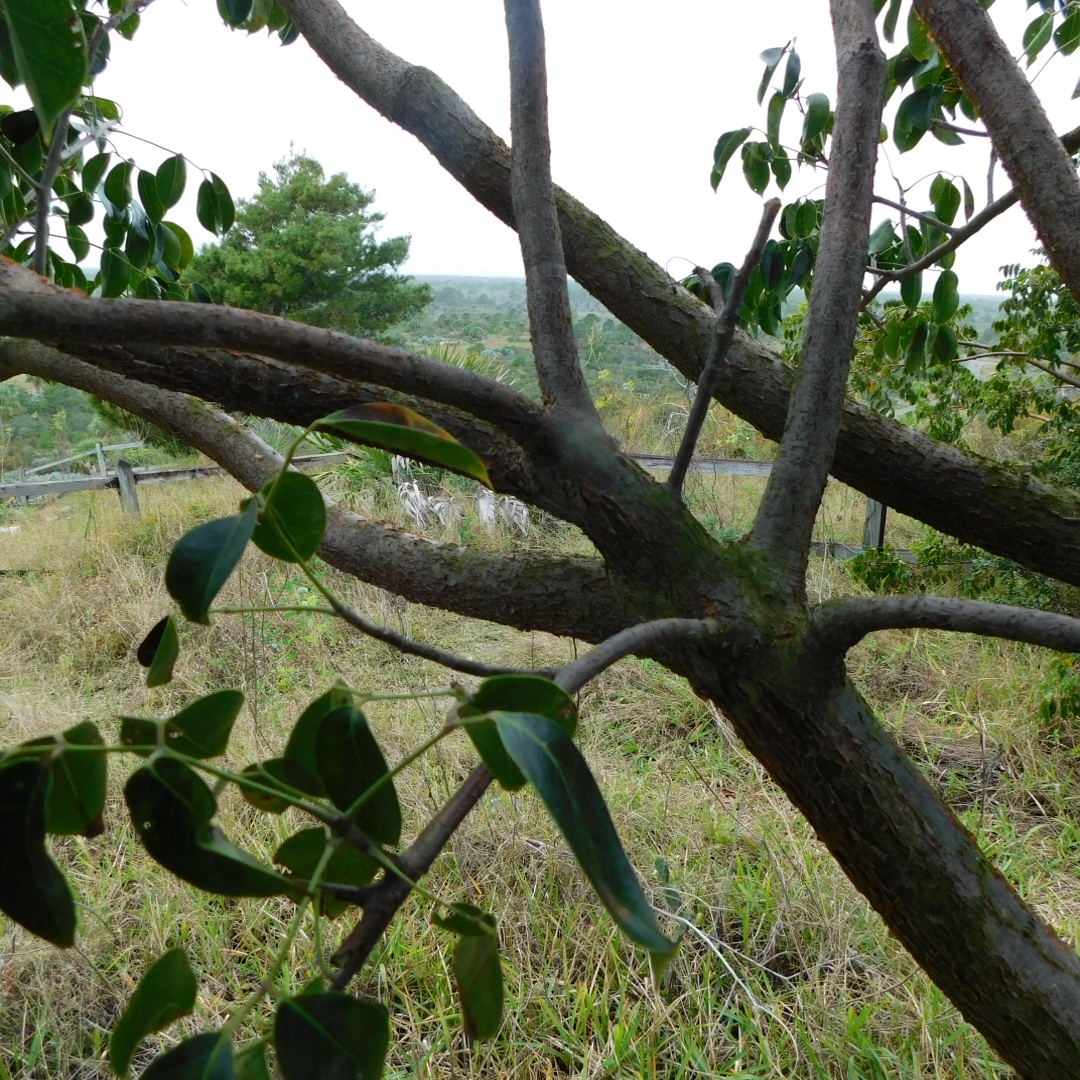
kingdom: Plantae
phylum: Tracheophyta
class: Magnoliopsida
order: Sapindales
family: Burseraceae
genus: Bursera
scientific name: Bursera simaruba
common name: Turpentine tree
